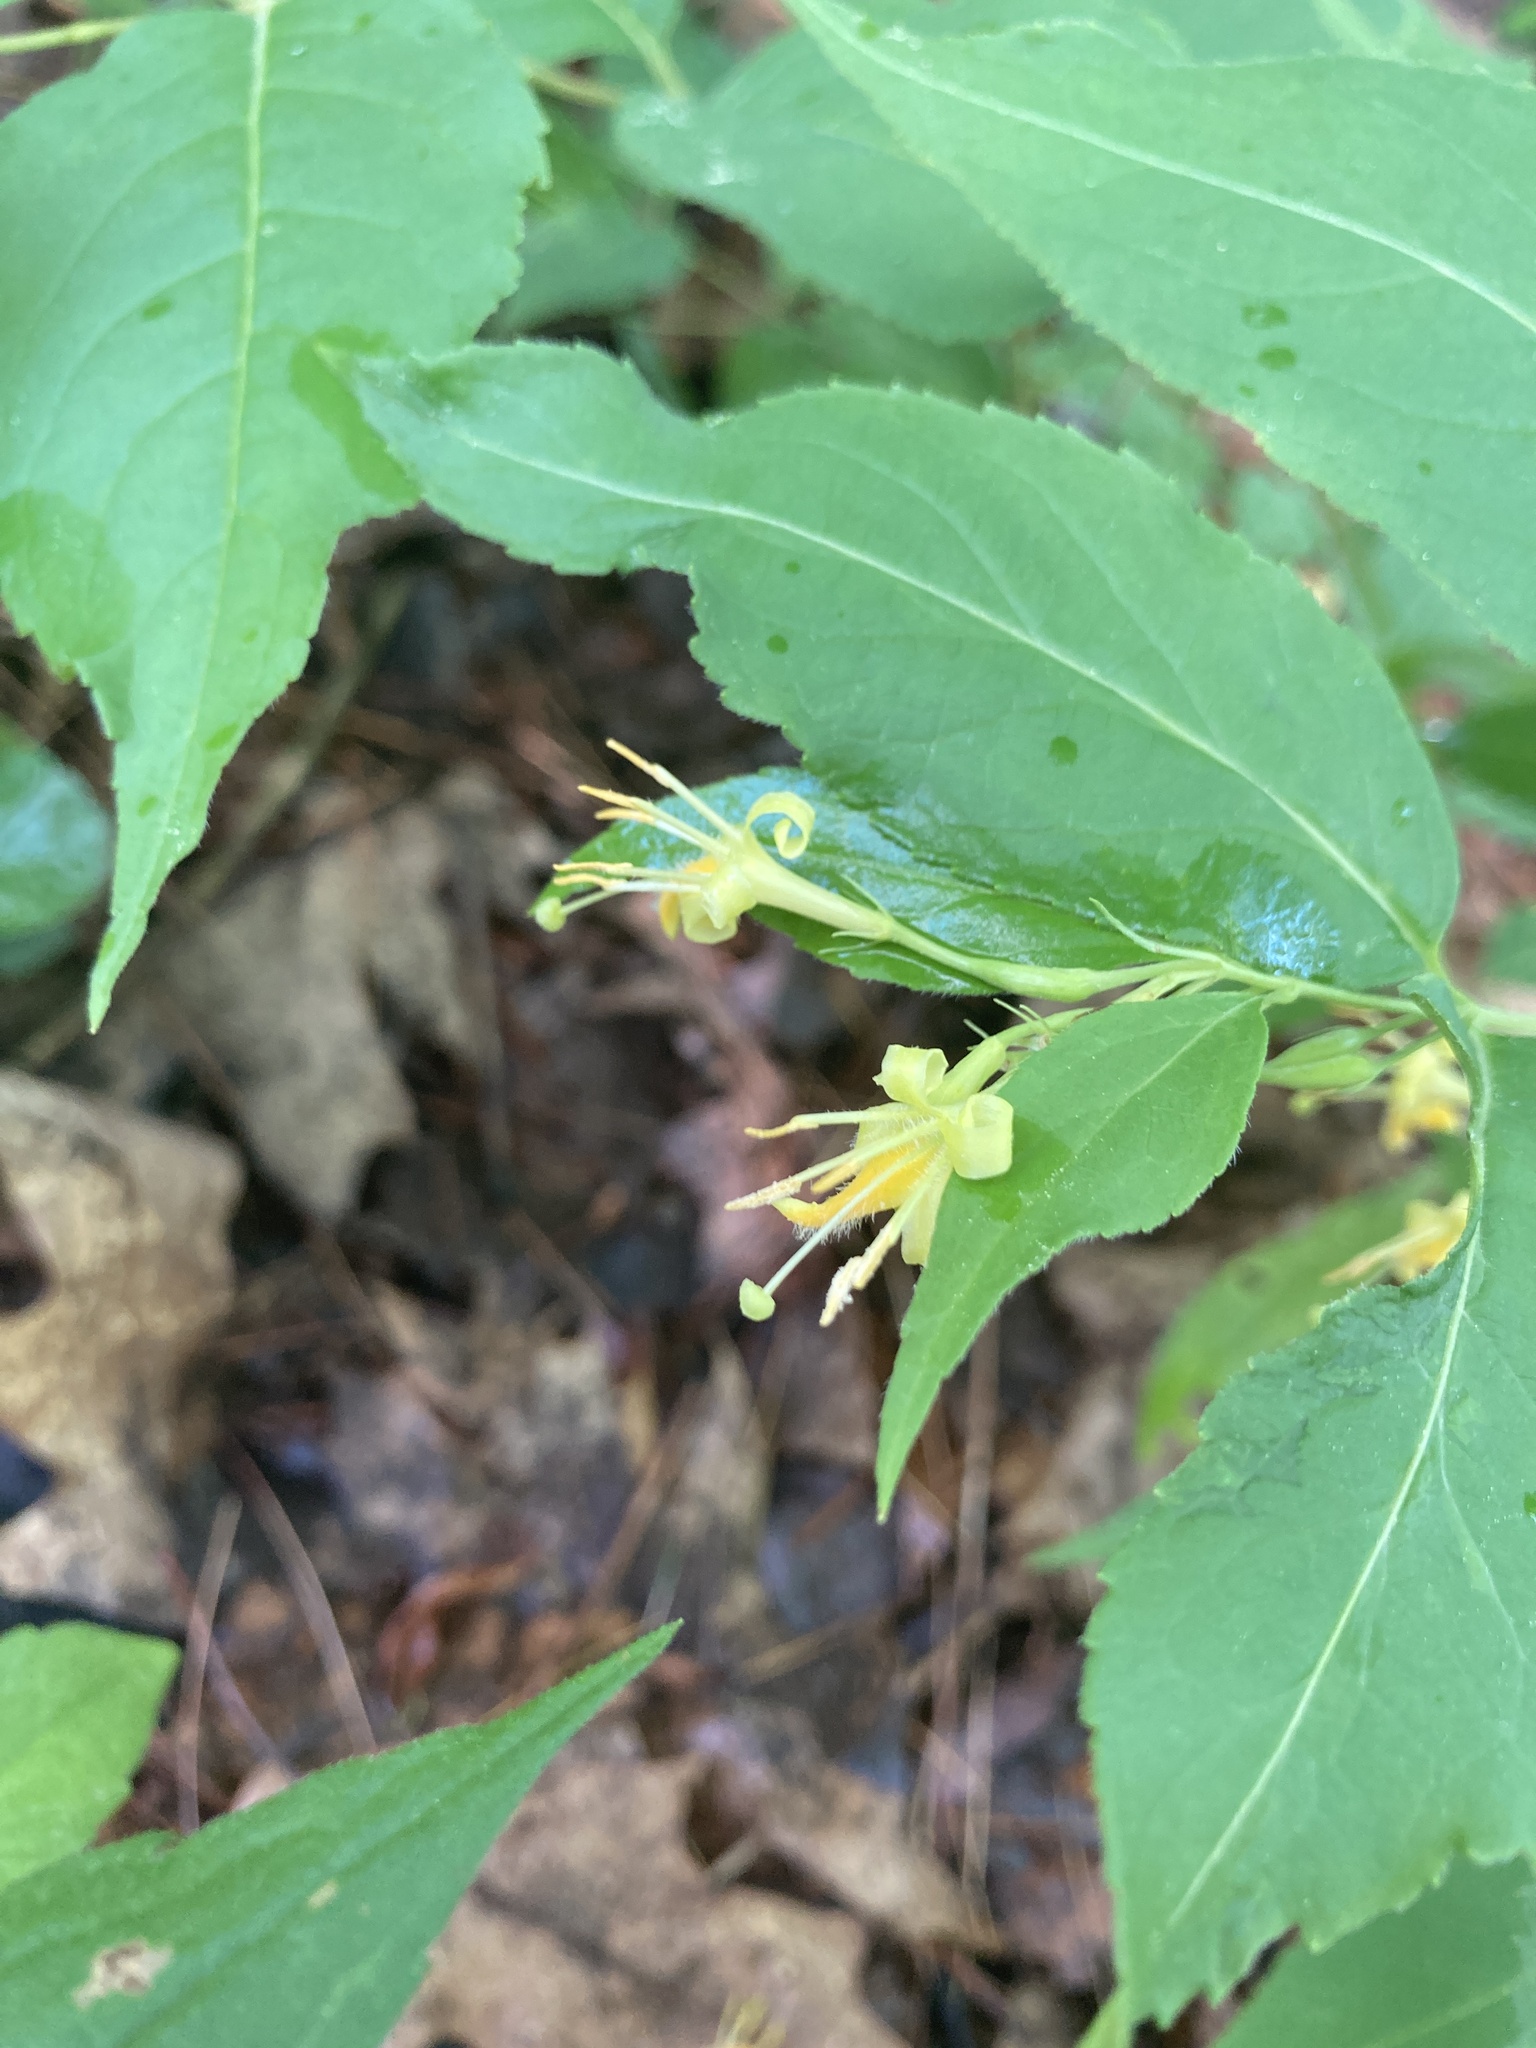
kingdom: Plantae
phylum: Tracheophyta
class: Magnoliopsida
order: Dipsacales
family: Caprifoliaceae
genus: Diervilla
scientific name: Diervilla lonicera
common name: Bush-honeysuckle
